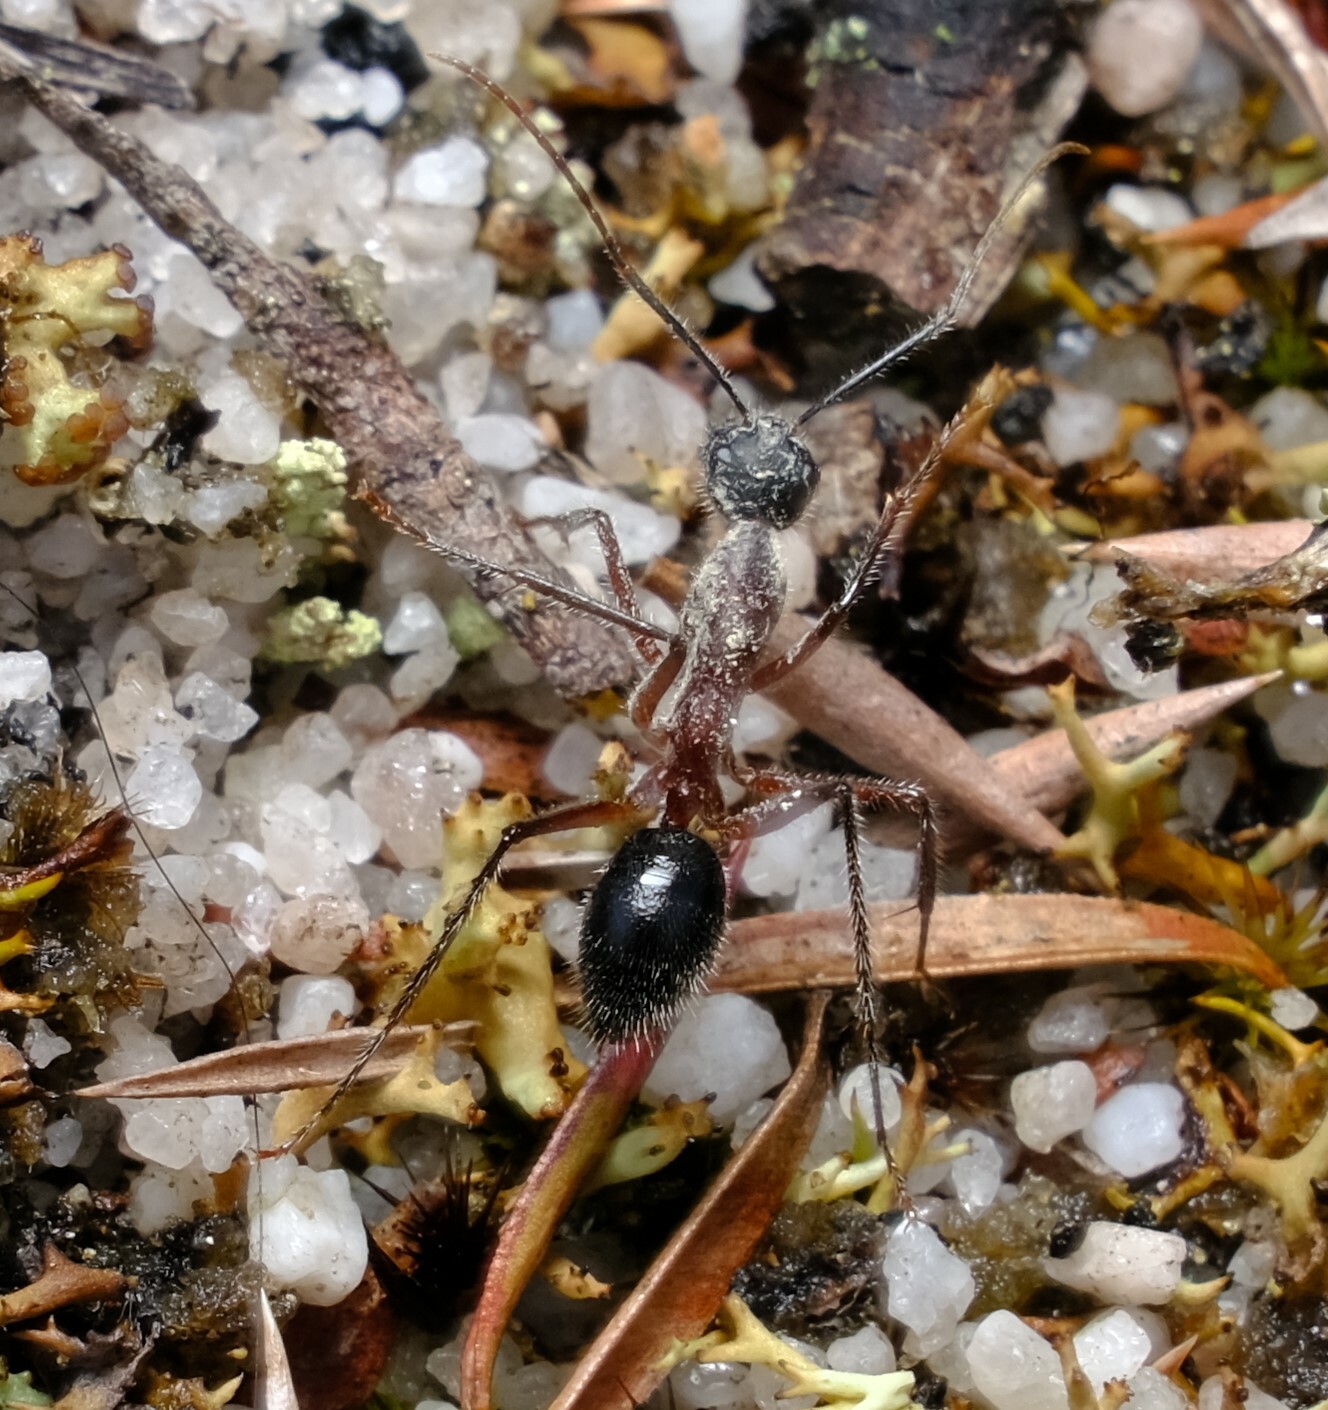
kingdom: Animalia
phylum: Arthropoda
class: Insecta
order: Hymenoptera
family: Formicidae
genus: Camponotus
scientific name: Camponotus intrepidus
